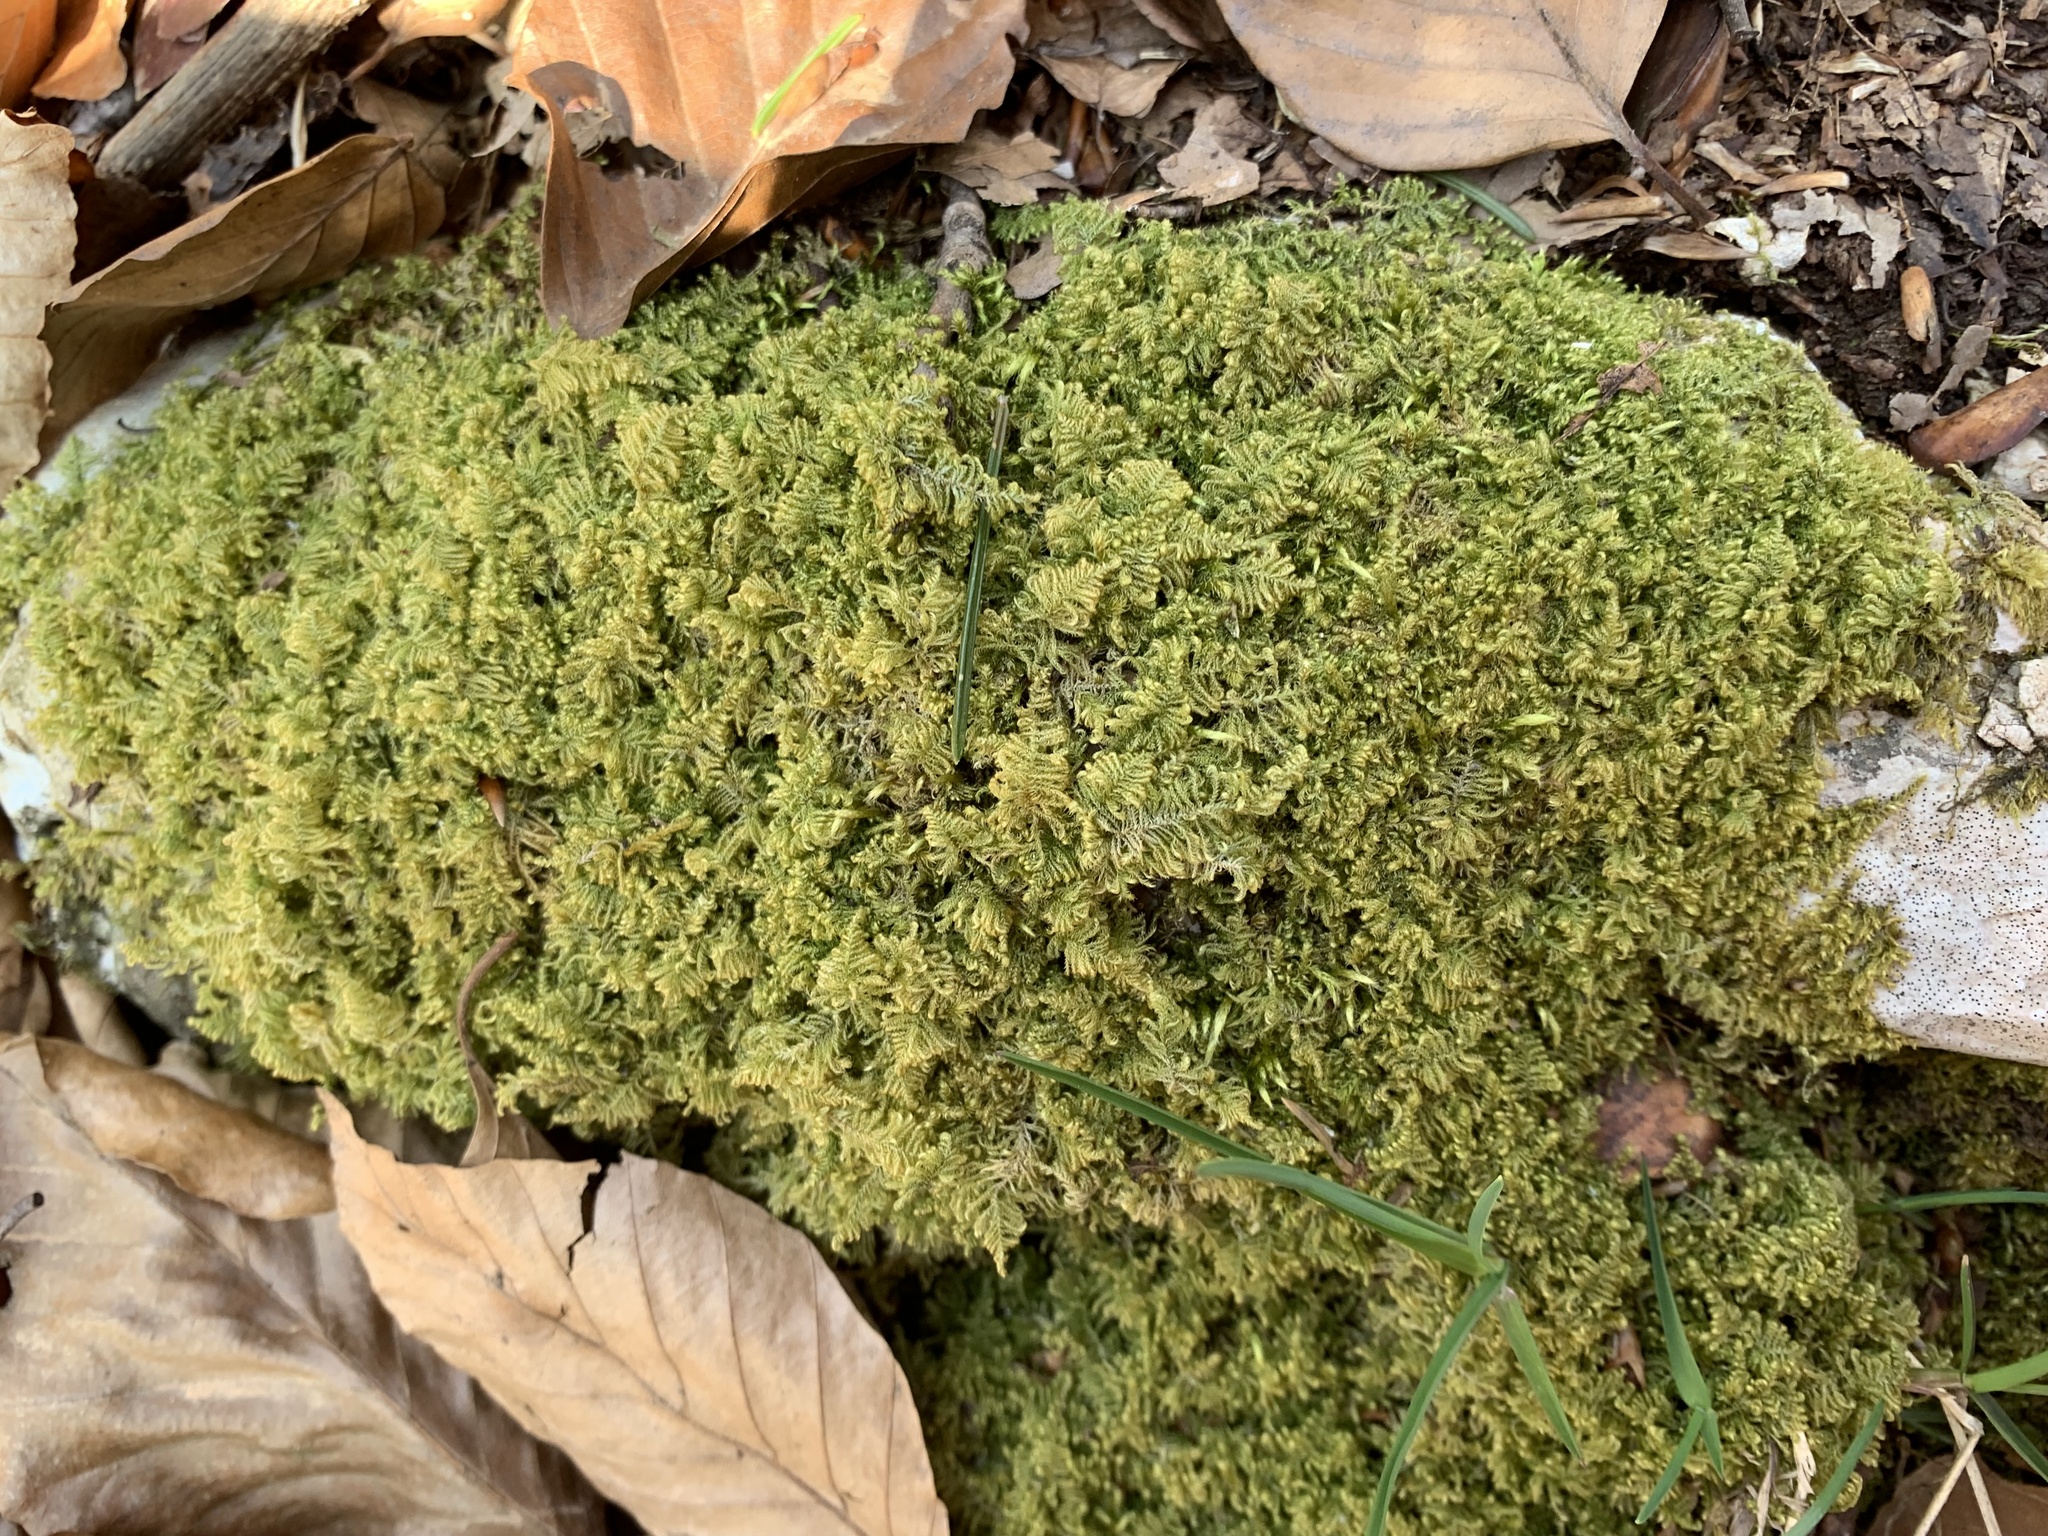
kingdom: Plantae
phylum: Bryophyta
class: Bryopsida
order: Hypnales
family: Myuriaceae
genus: Ctenidium
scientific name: Ctenidium molluscum
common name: Chalk comb-moss
